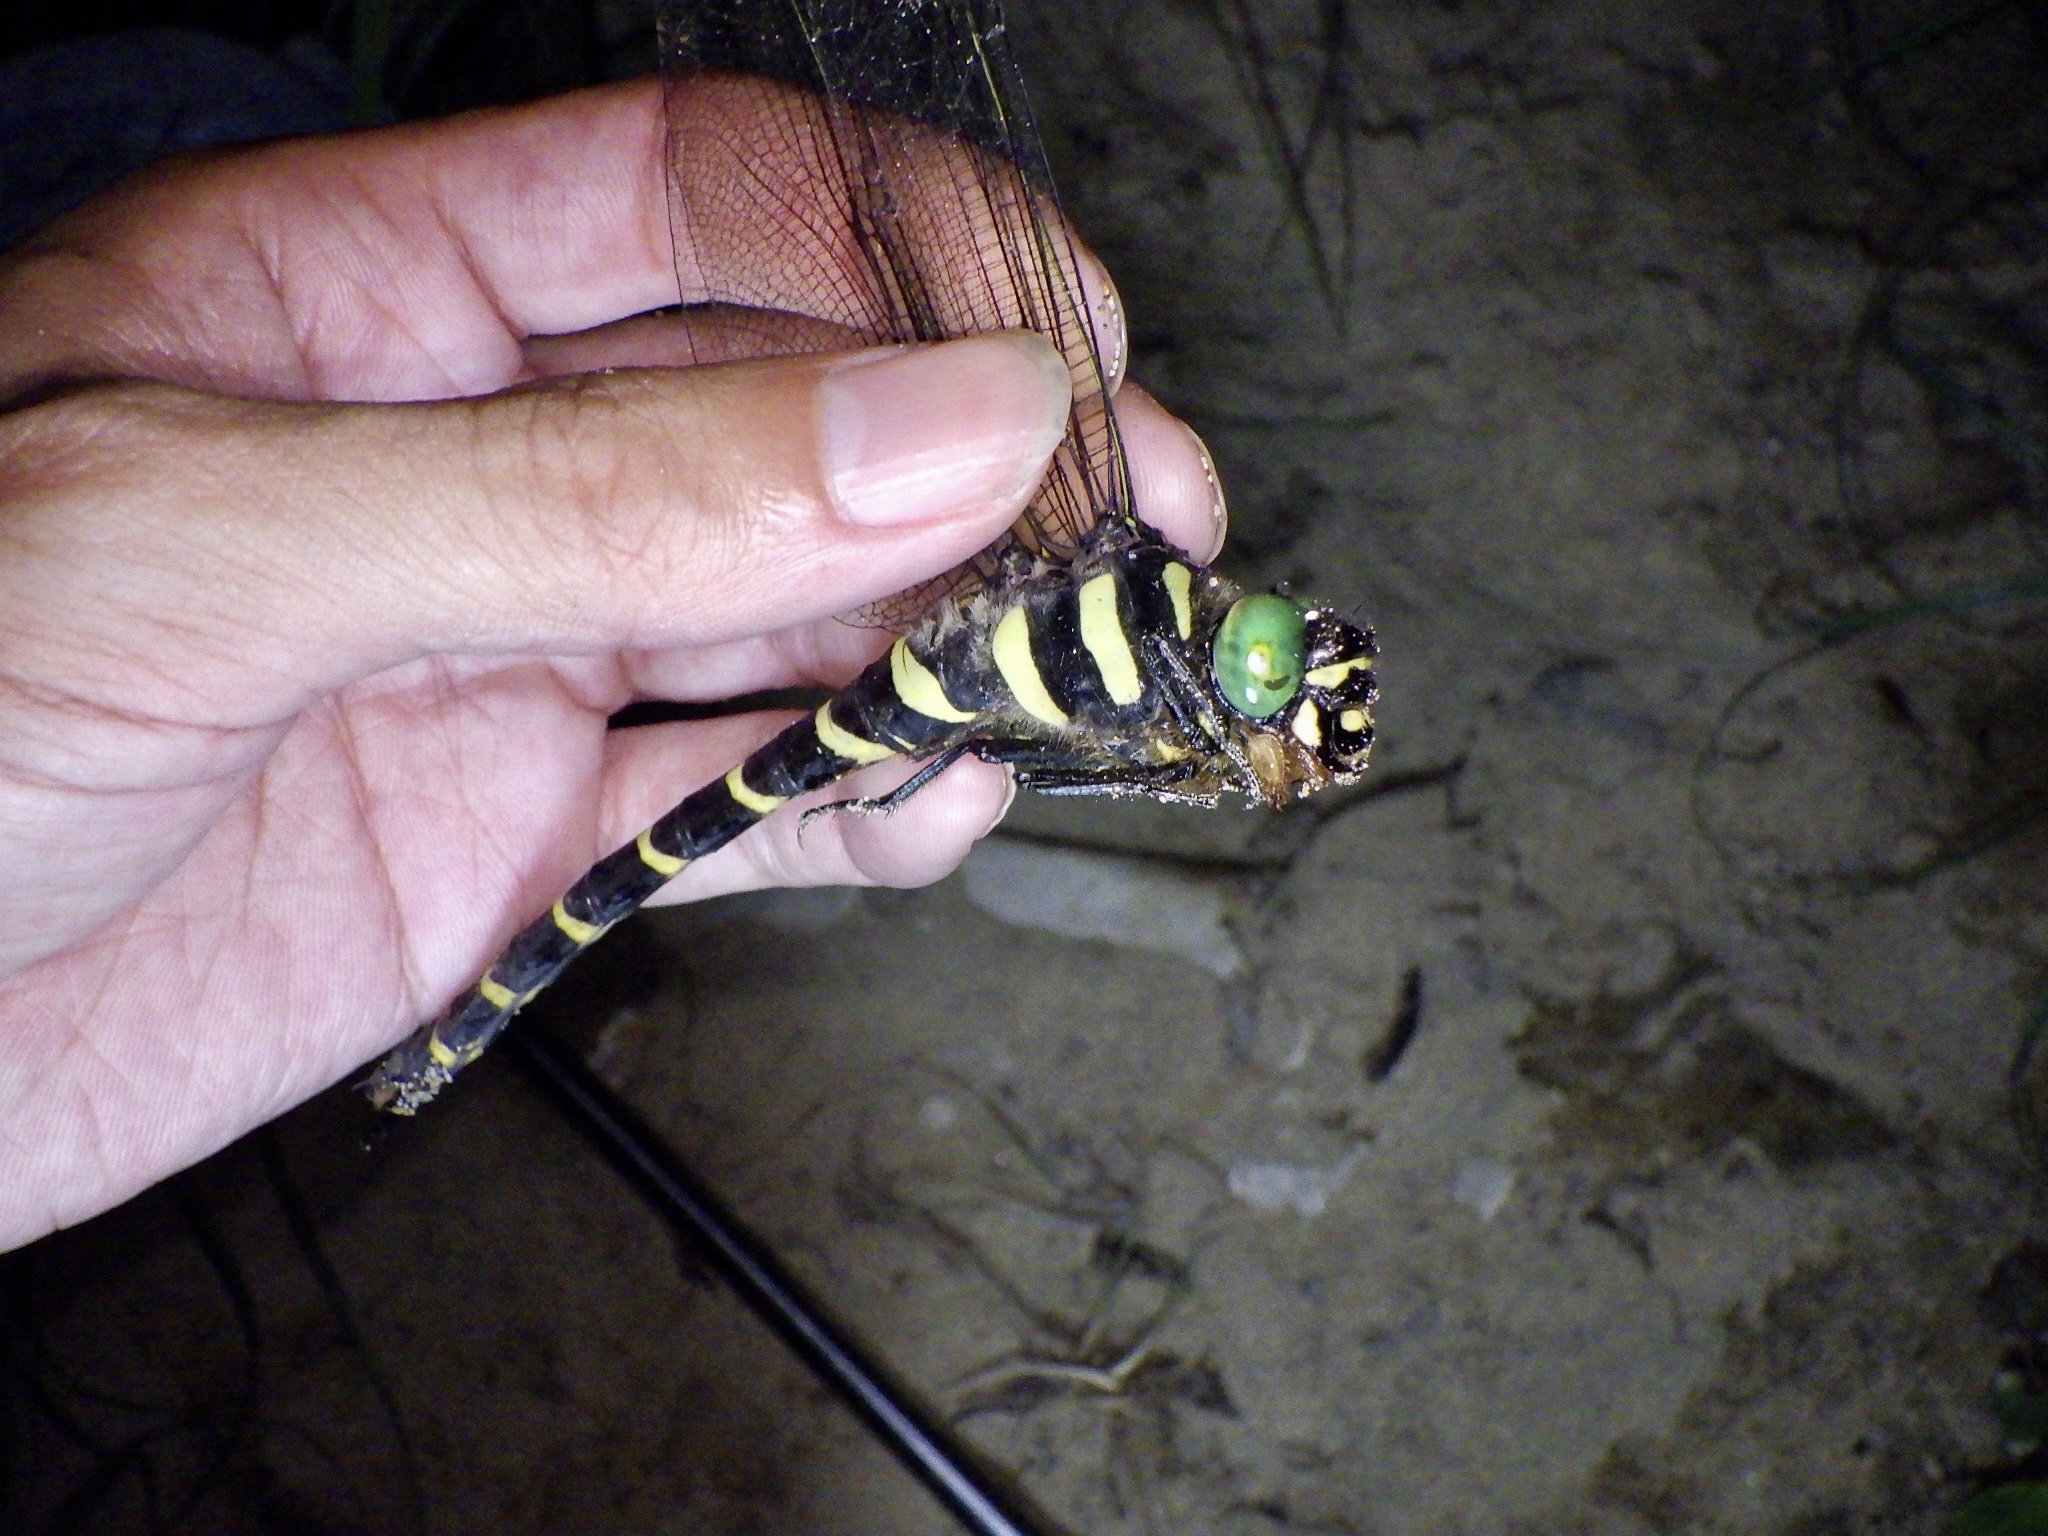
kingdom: Animalia
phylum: Arthropoda
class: Insecta
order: Odonata
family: Cordulegastridae
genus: Anotogaster
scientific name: Anotogaster sieboldii
